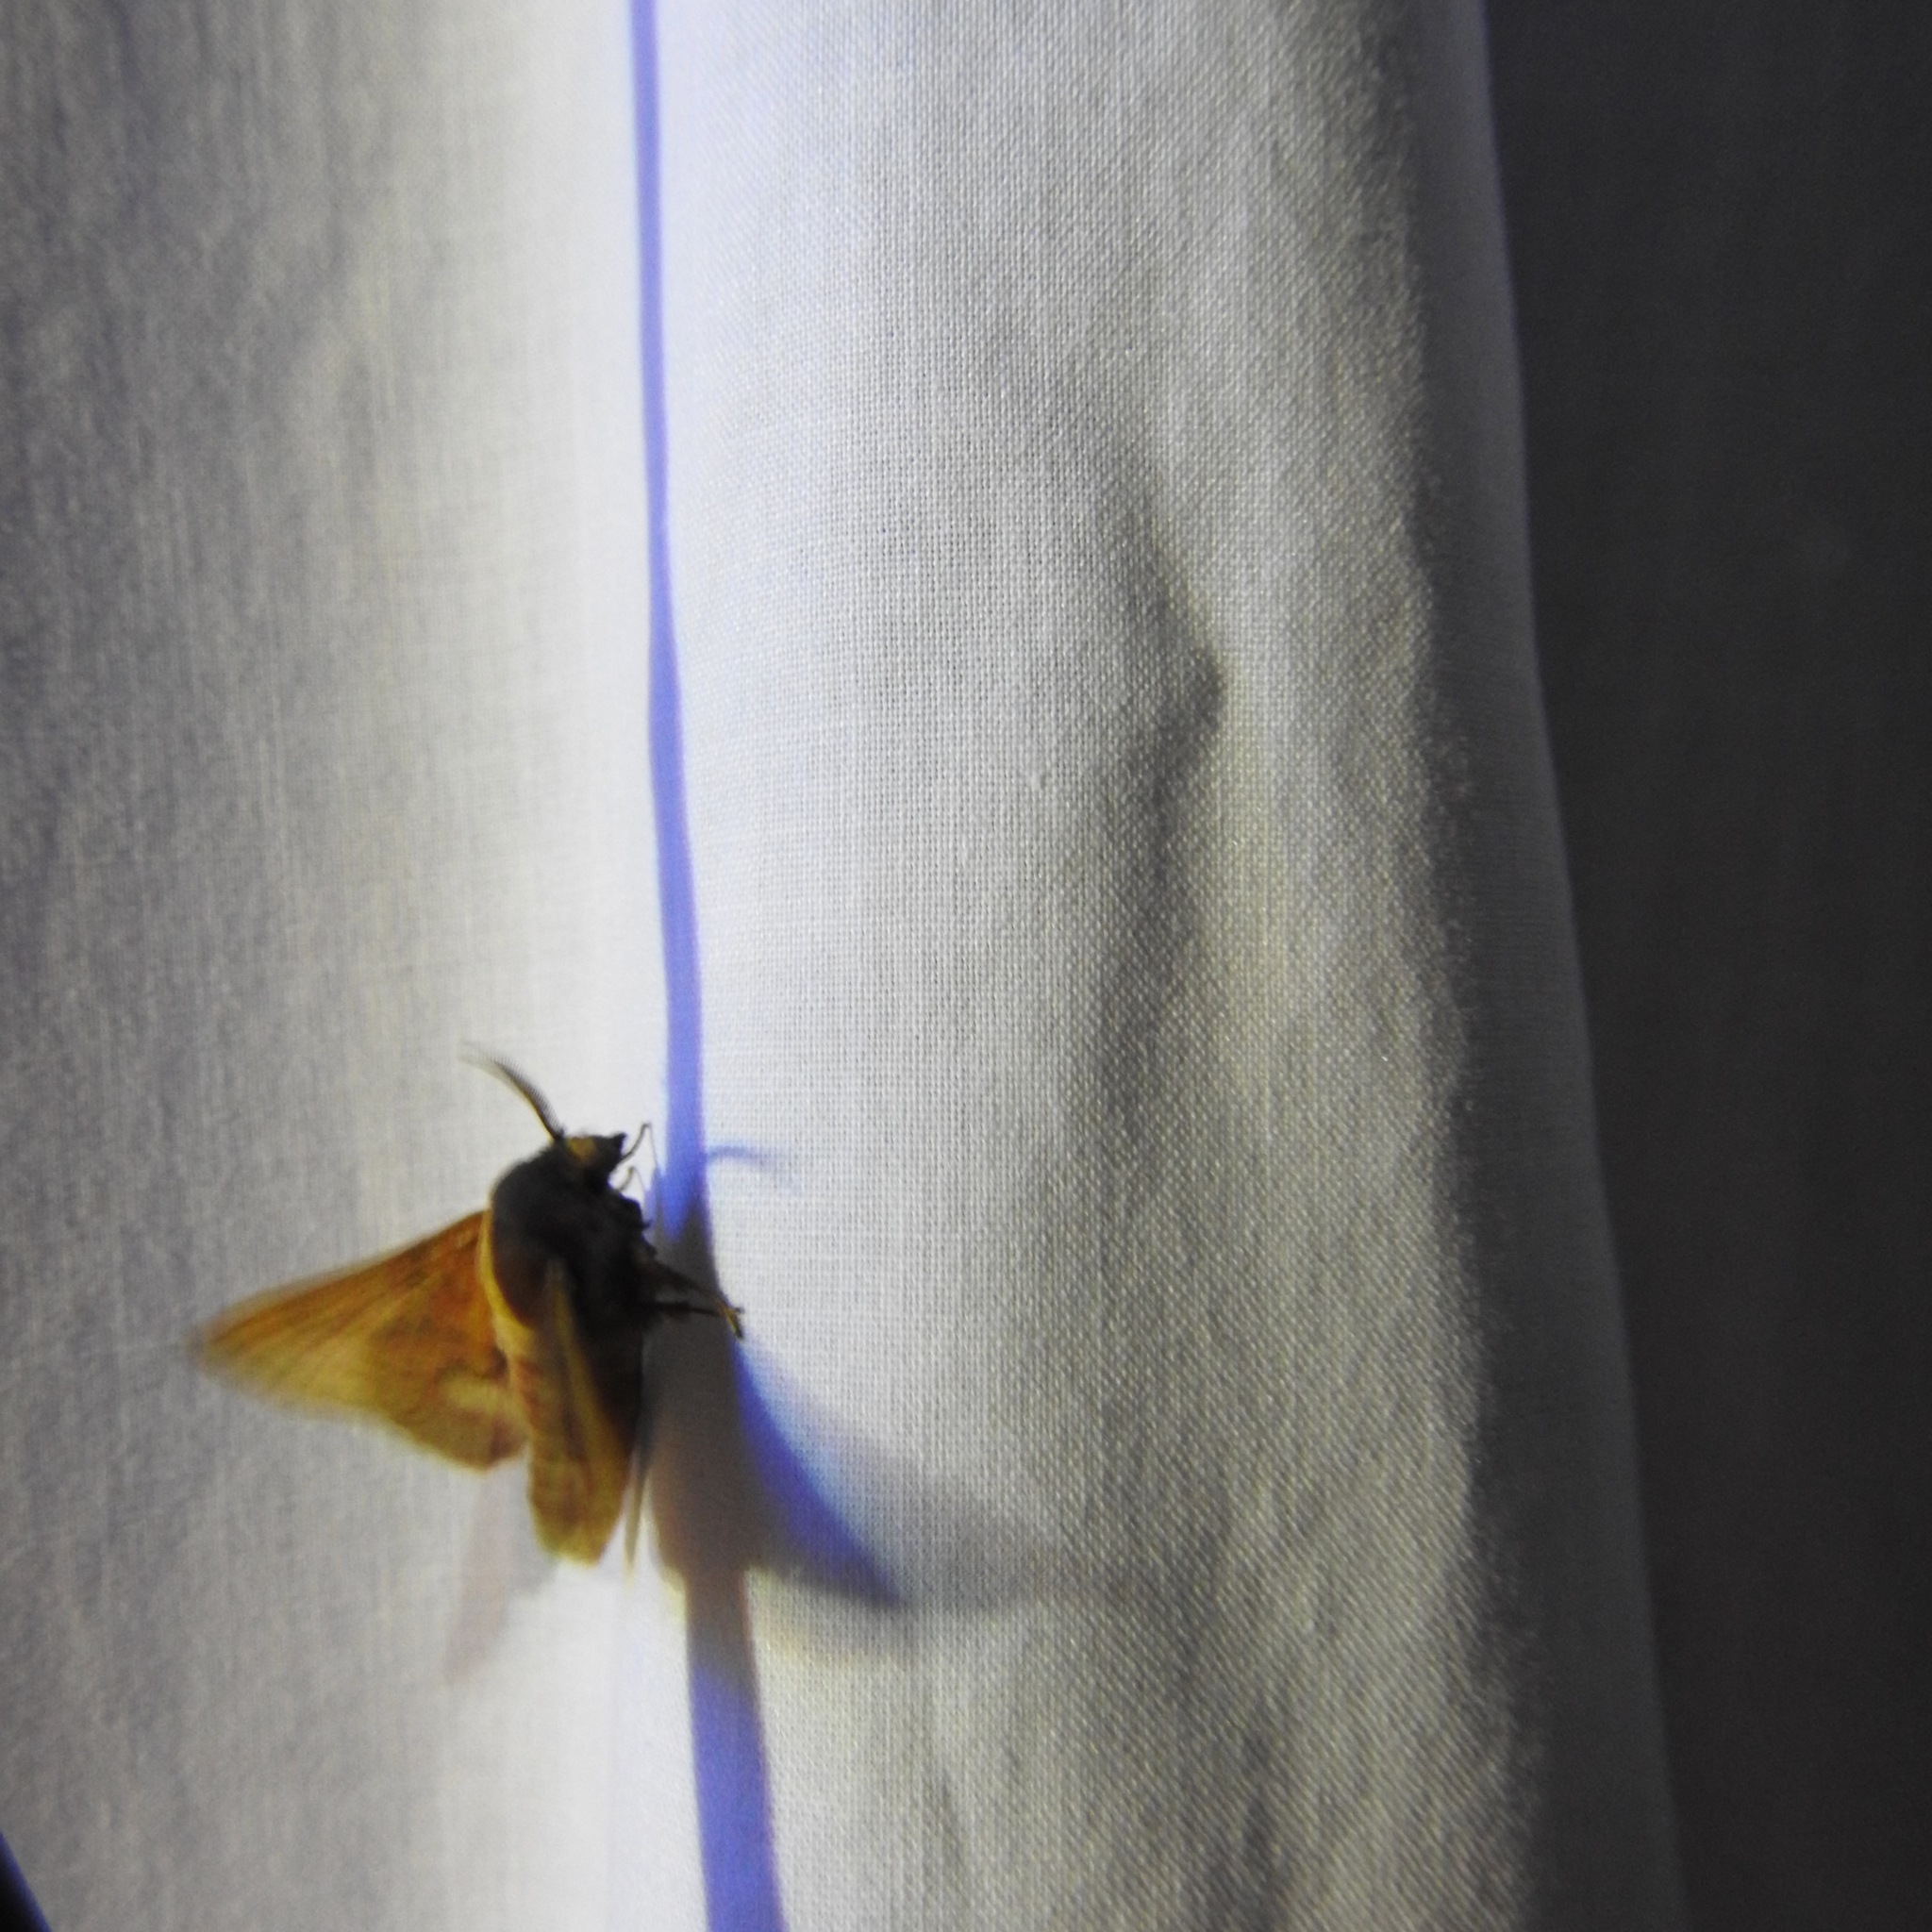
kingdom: Animalia
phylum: Arthropoda
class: Insecta
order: Lepidoptera
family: Lasiocampidae
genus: Phyllodesma
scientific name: Phyllodesma americana
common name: American lappet moth
